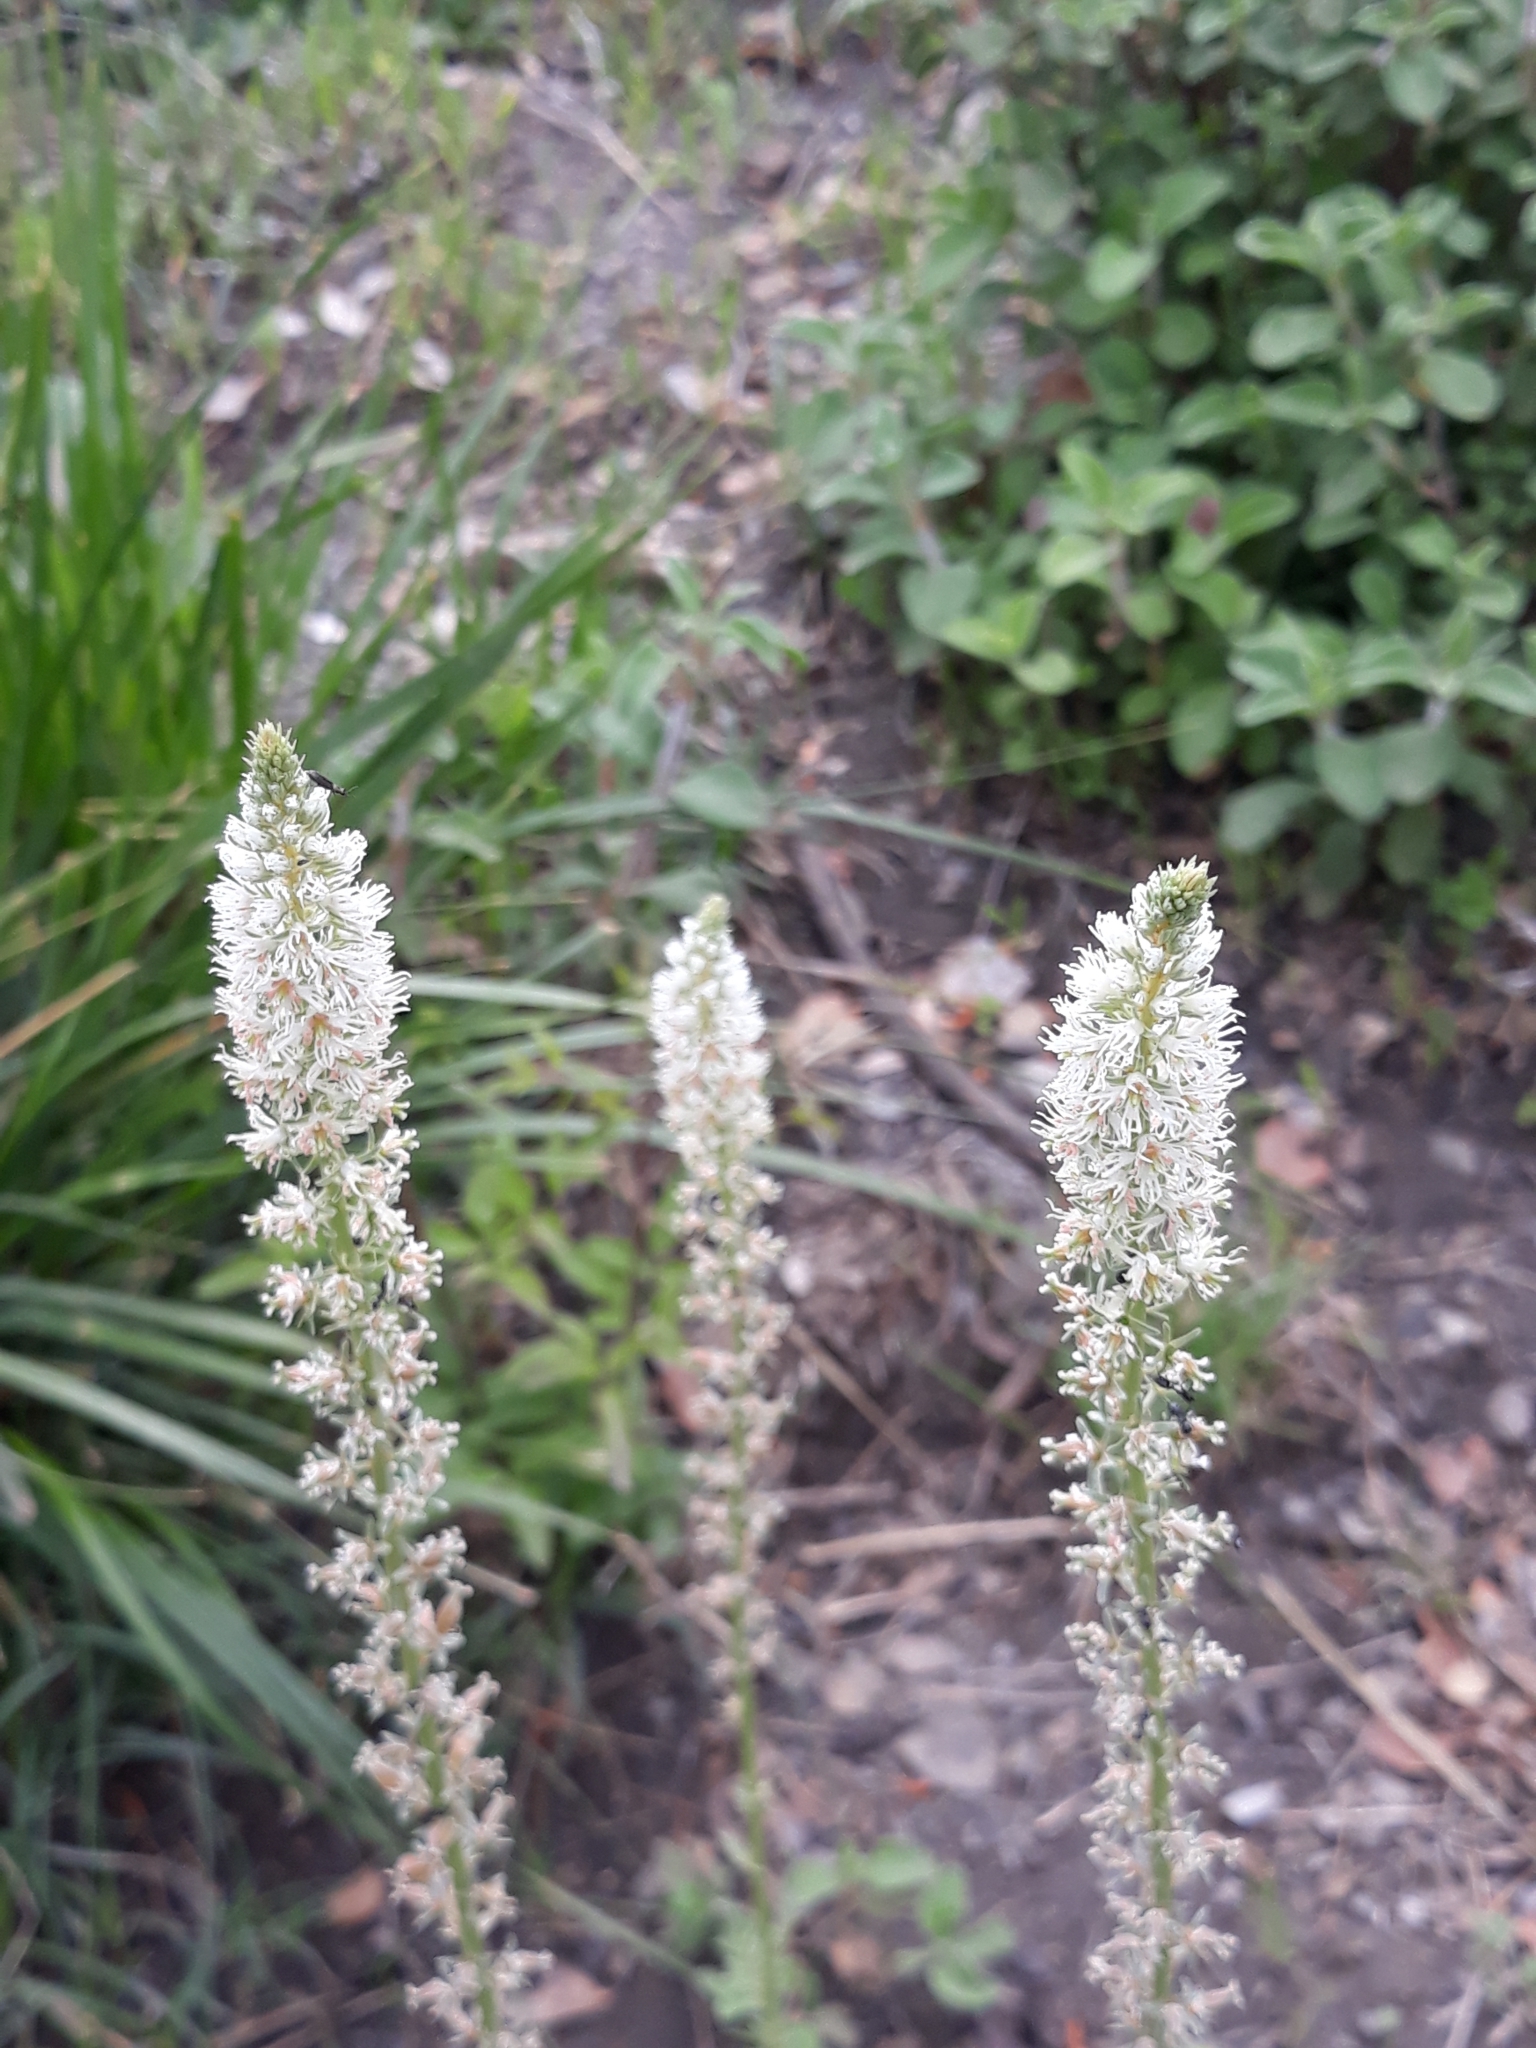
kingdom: Plantae
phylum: Tracheophyta
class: Magnoliopsida
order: Brassicales
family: Resedaceae
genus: Reseda
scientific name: Reseda alba
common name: White mignonette
